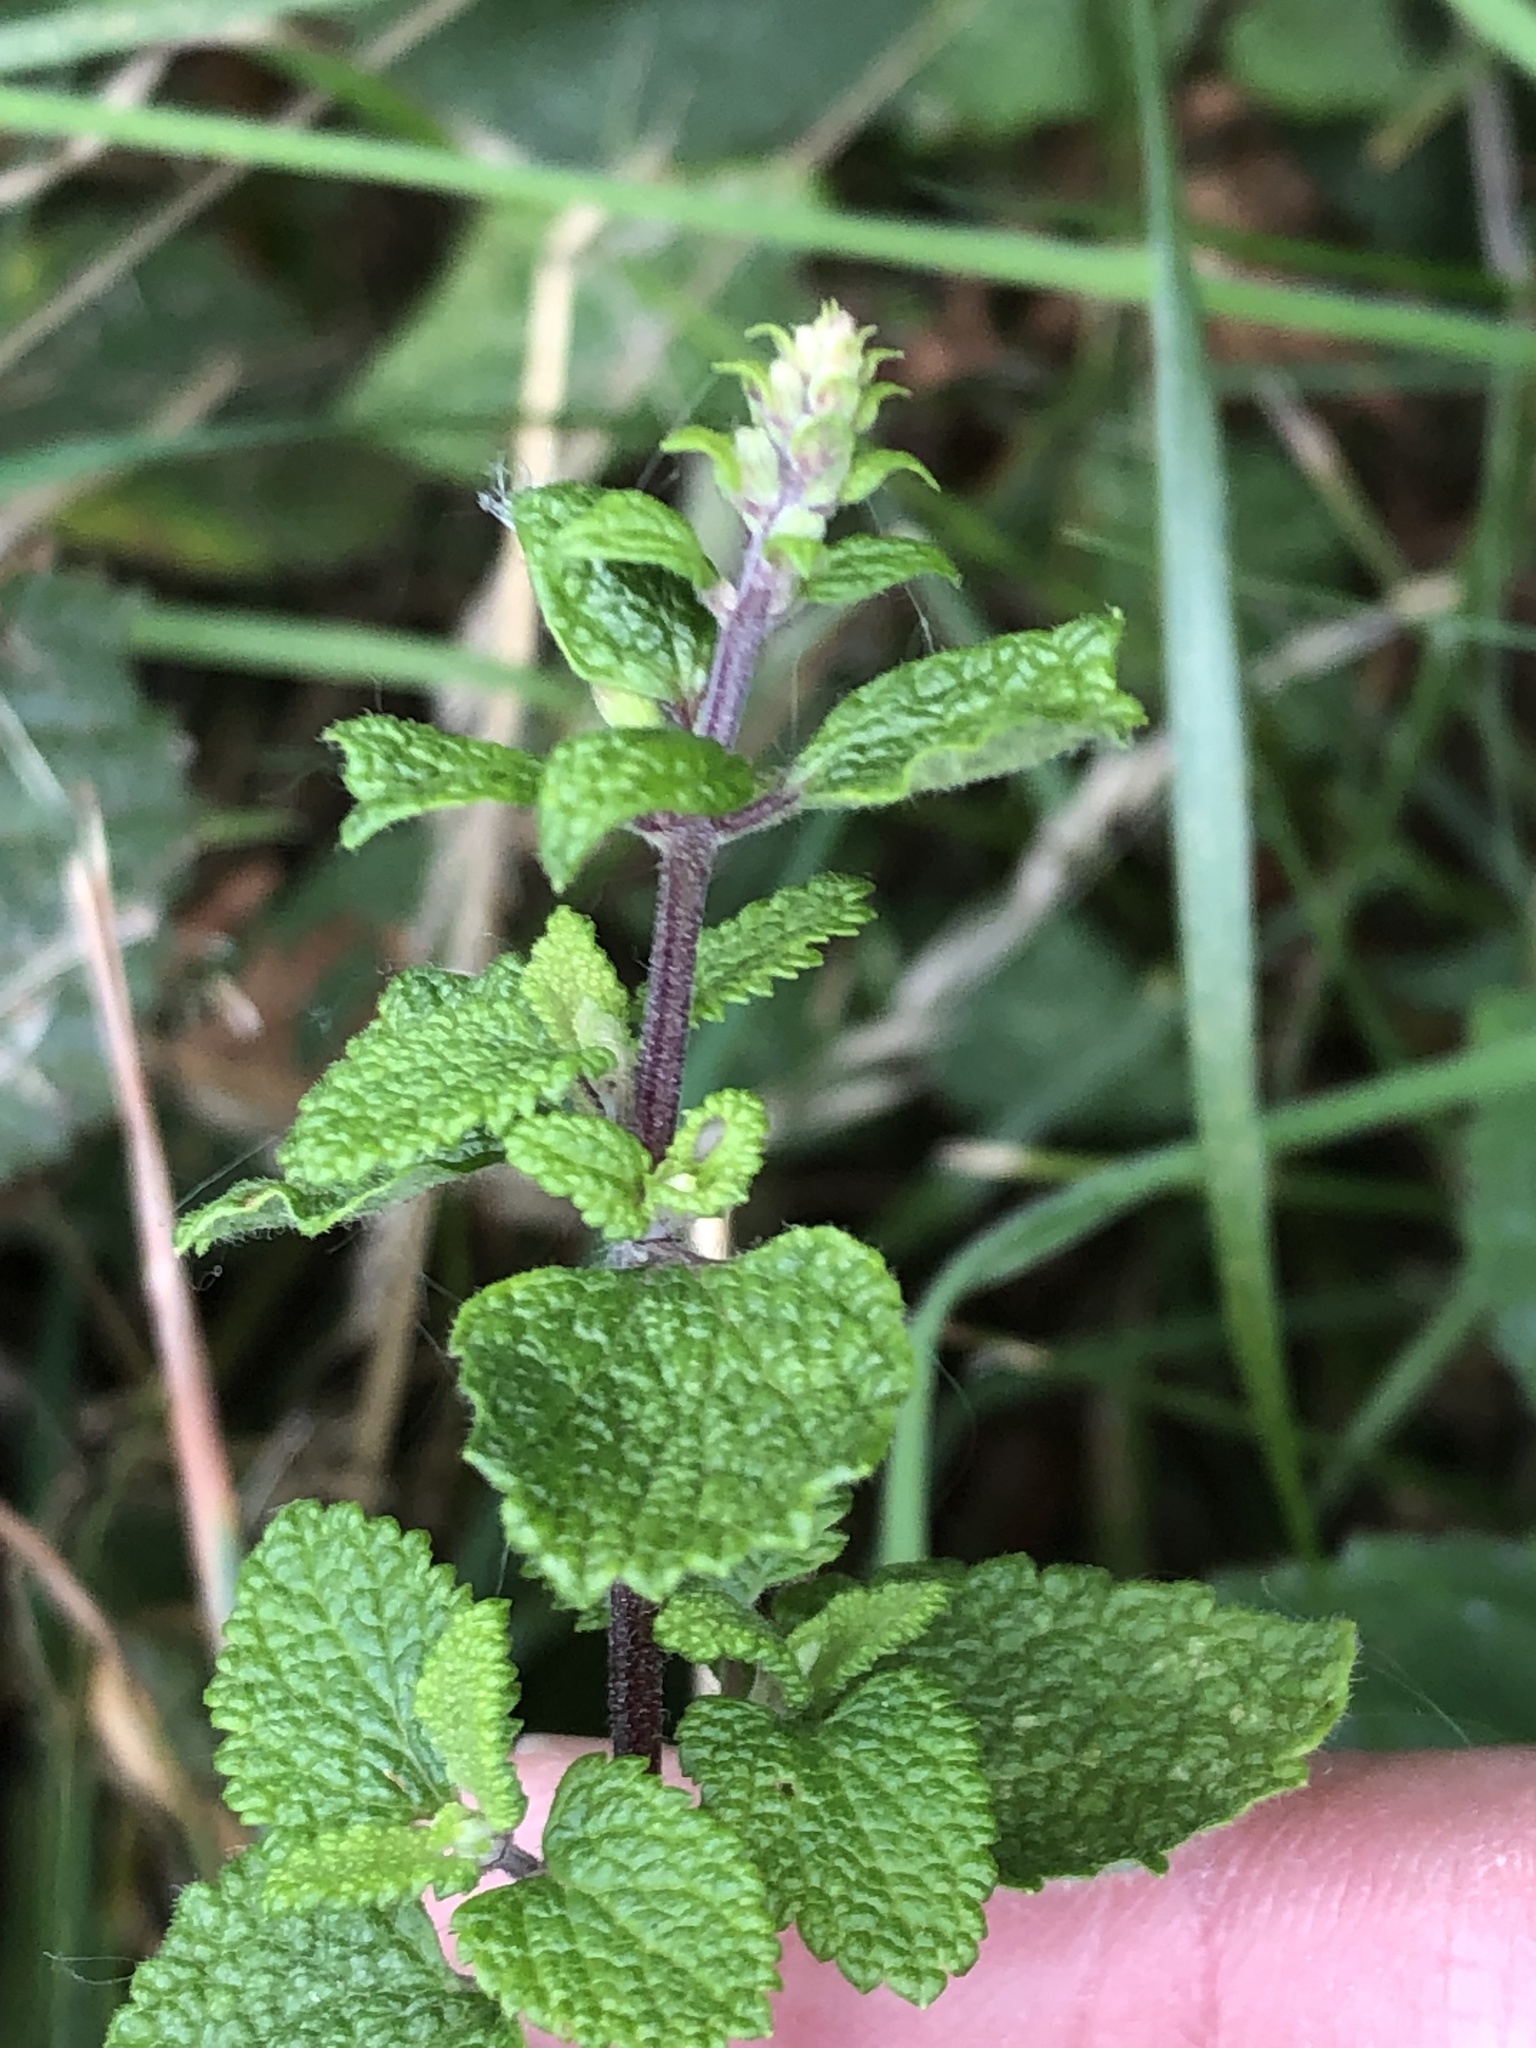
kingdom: Plantae
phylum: Tracheophyta
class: Magnoliopsida
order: Lamiales
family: Lamiaceae
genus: Teucrium
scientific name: Teucrium scorodonia
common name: Woodland germander
